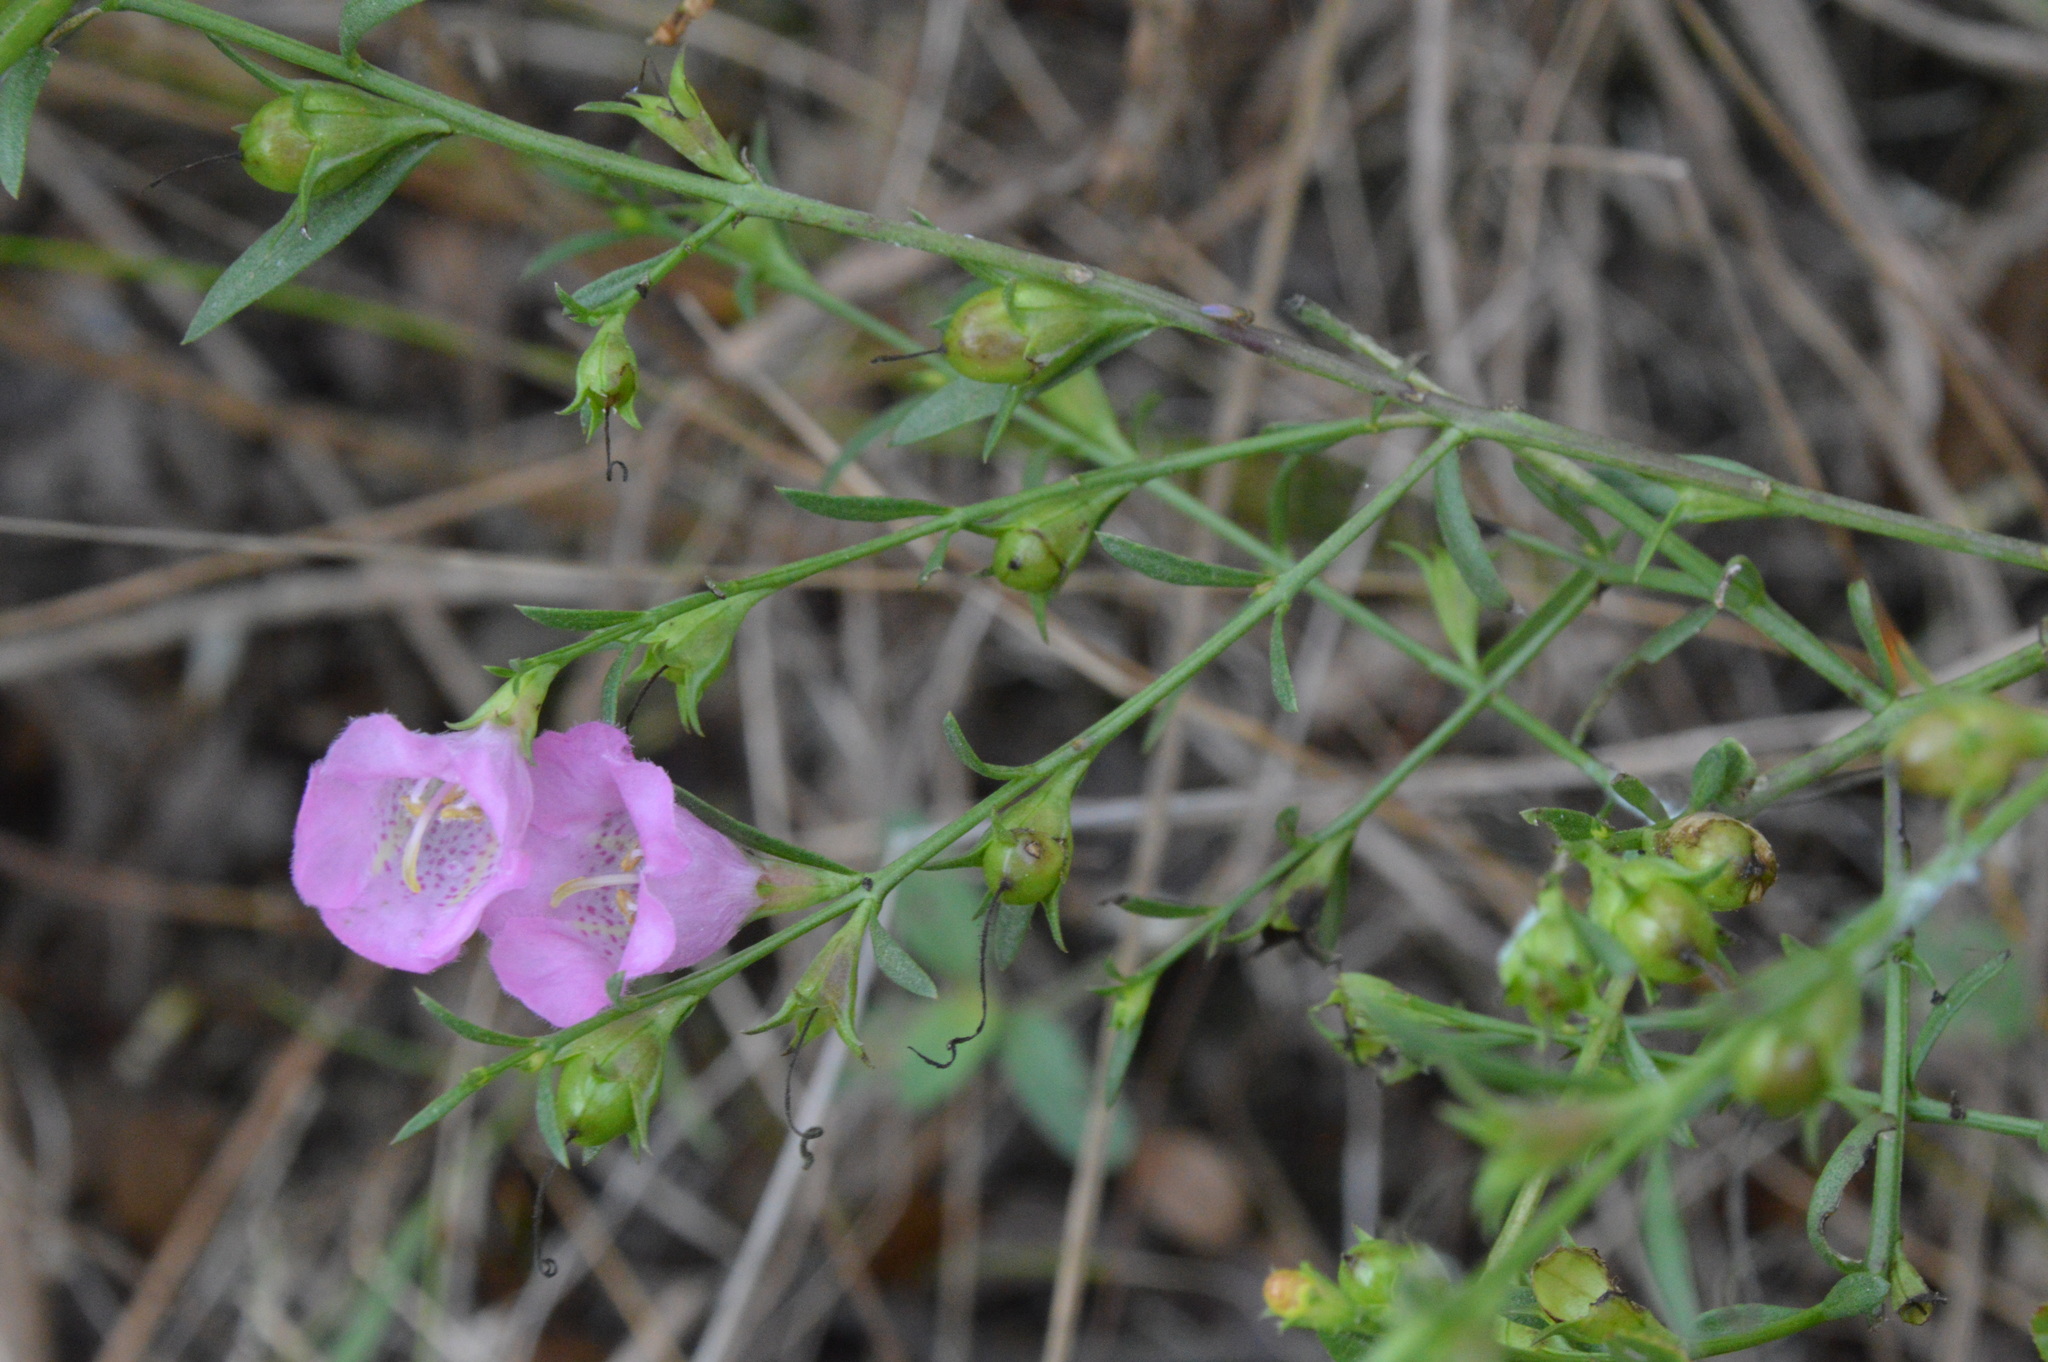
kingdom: Plantae
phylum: Tracheophyta
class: Magnoliopsida
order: Lamiales
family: Orobanchaceae
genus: Agalinis
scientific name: Agalinis heterophylla
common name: Prairie agalinis
